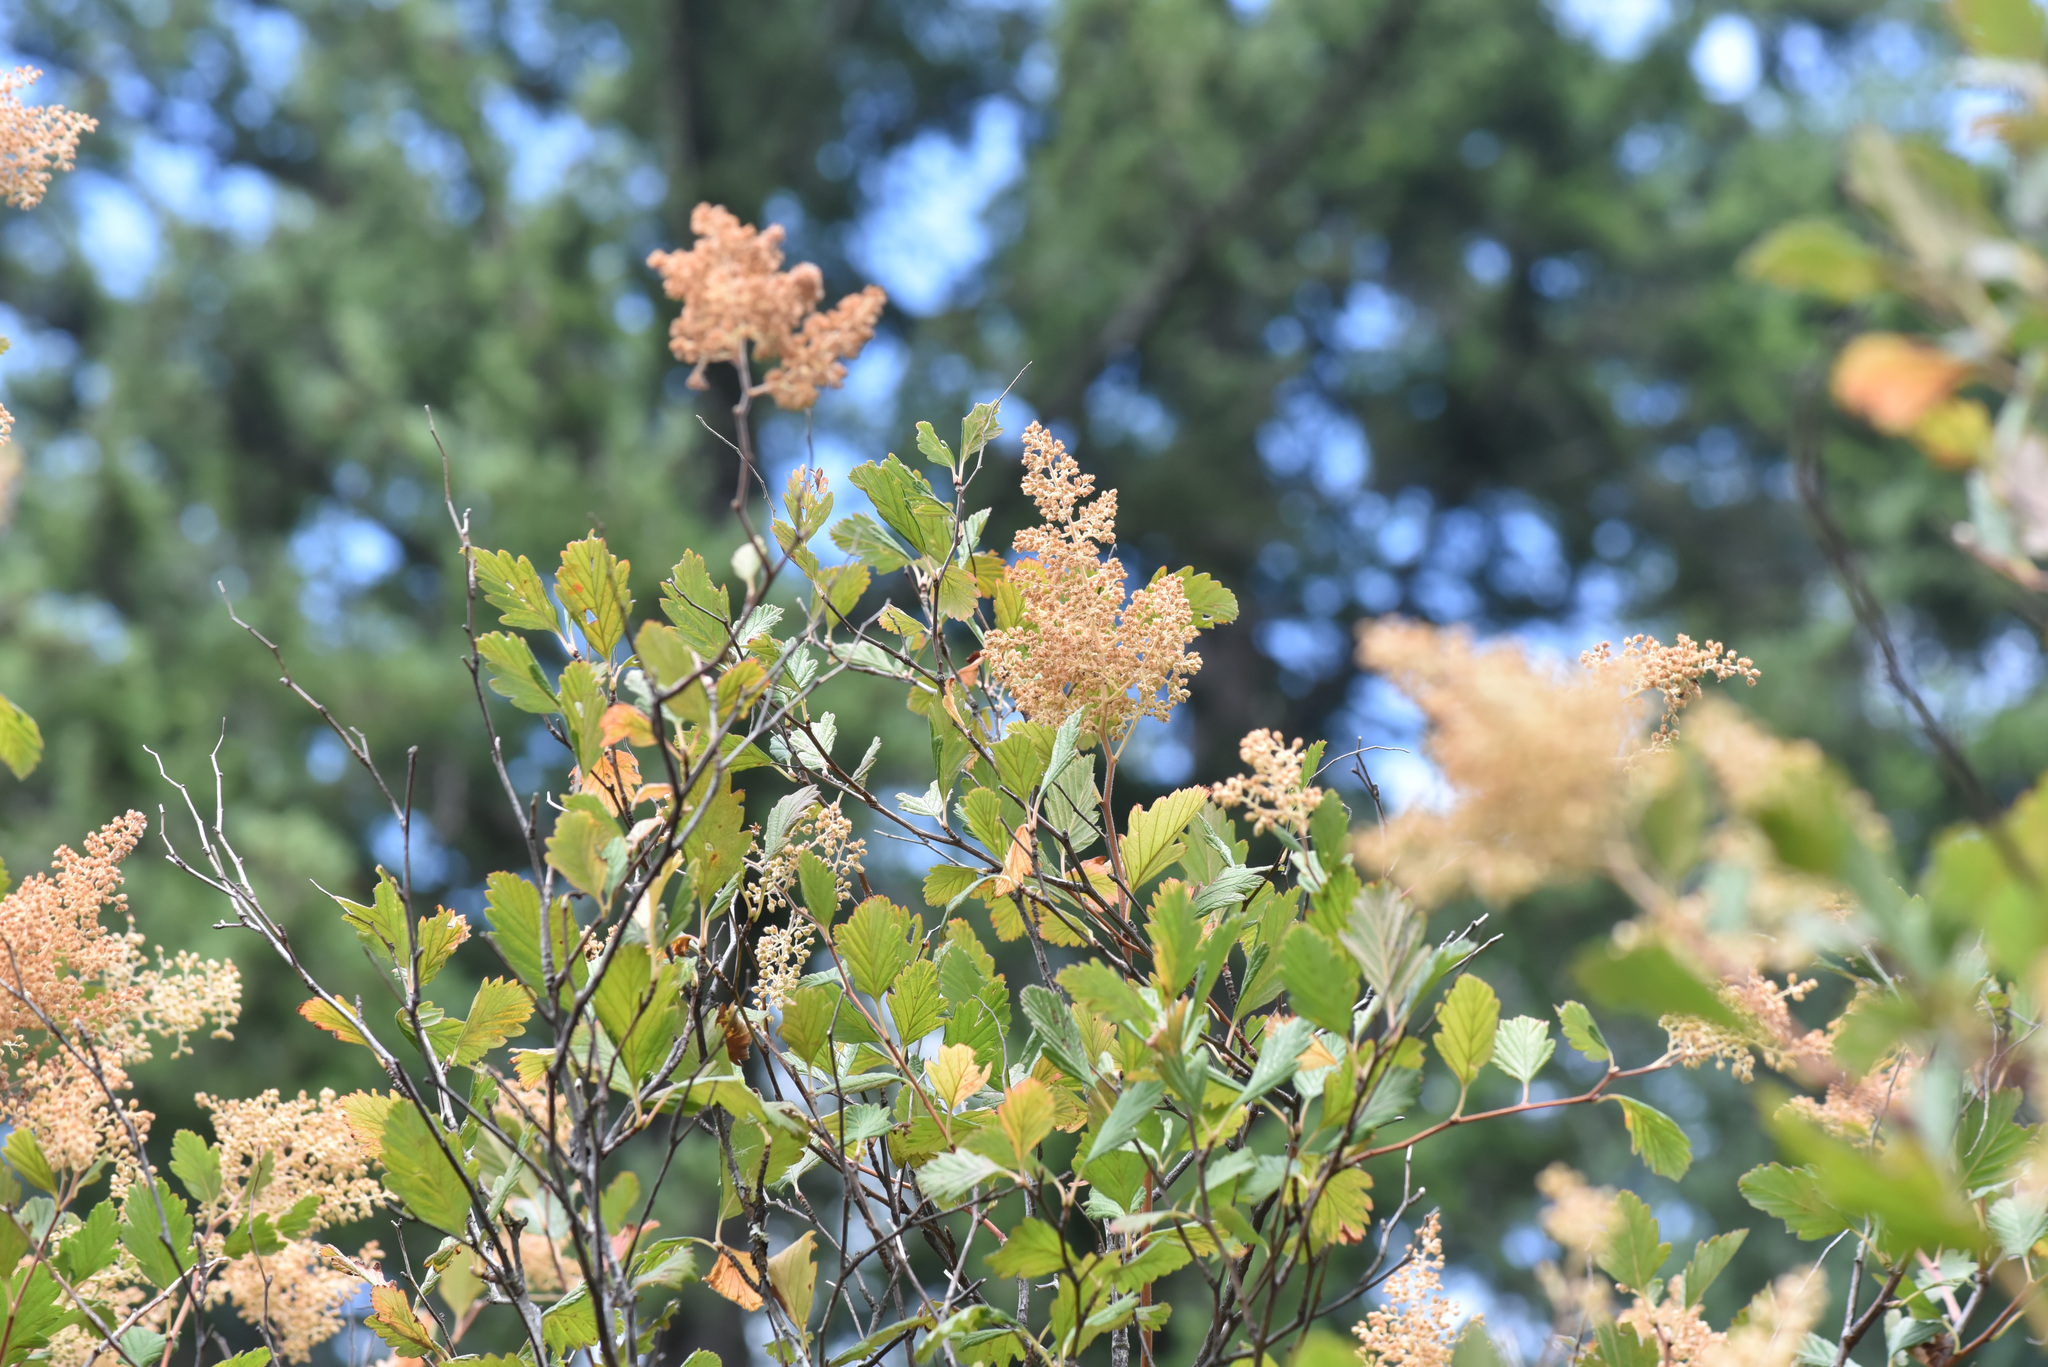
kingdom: Plantae
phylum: Tracheophyta
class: Magnoliopsida
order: Rosales
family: Rosaceae
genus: Holodiscus
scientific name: Holodiscus discolor
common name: Oceanspray
